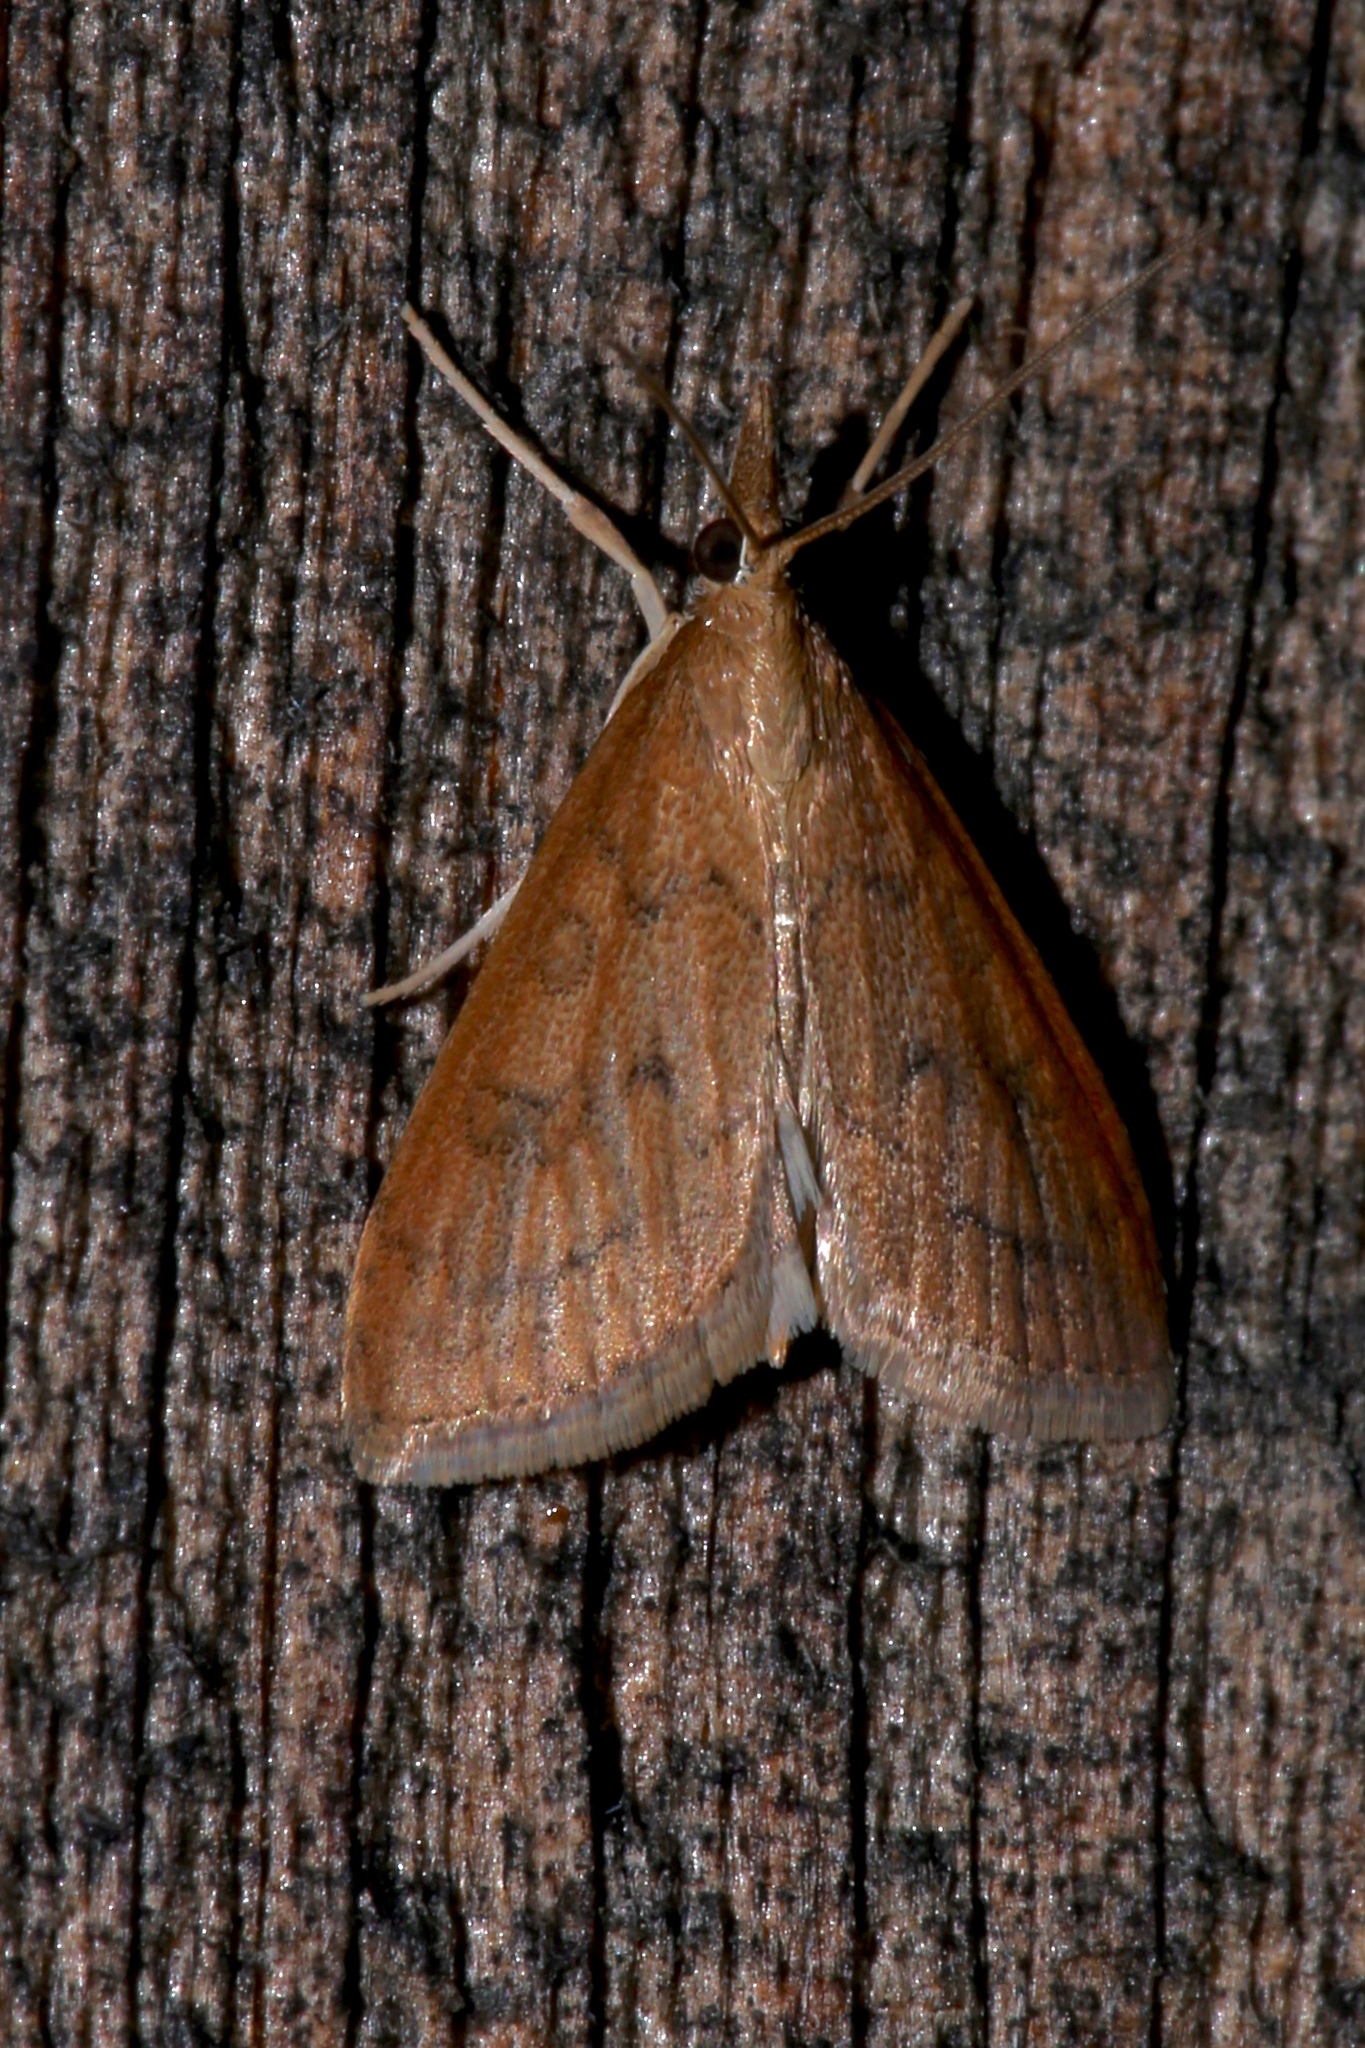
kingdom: Animalia
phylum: Arthropoda
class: Insecta
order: Lepidoptera
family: Crambidae
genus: Udea
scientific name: Udea rubigalis
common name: Celery leaftier moth
